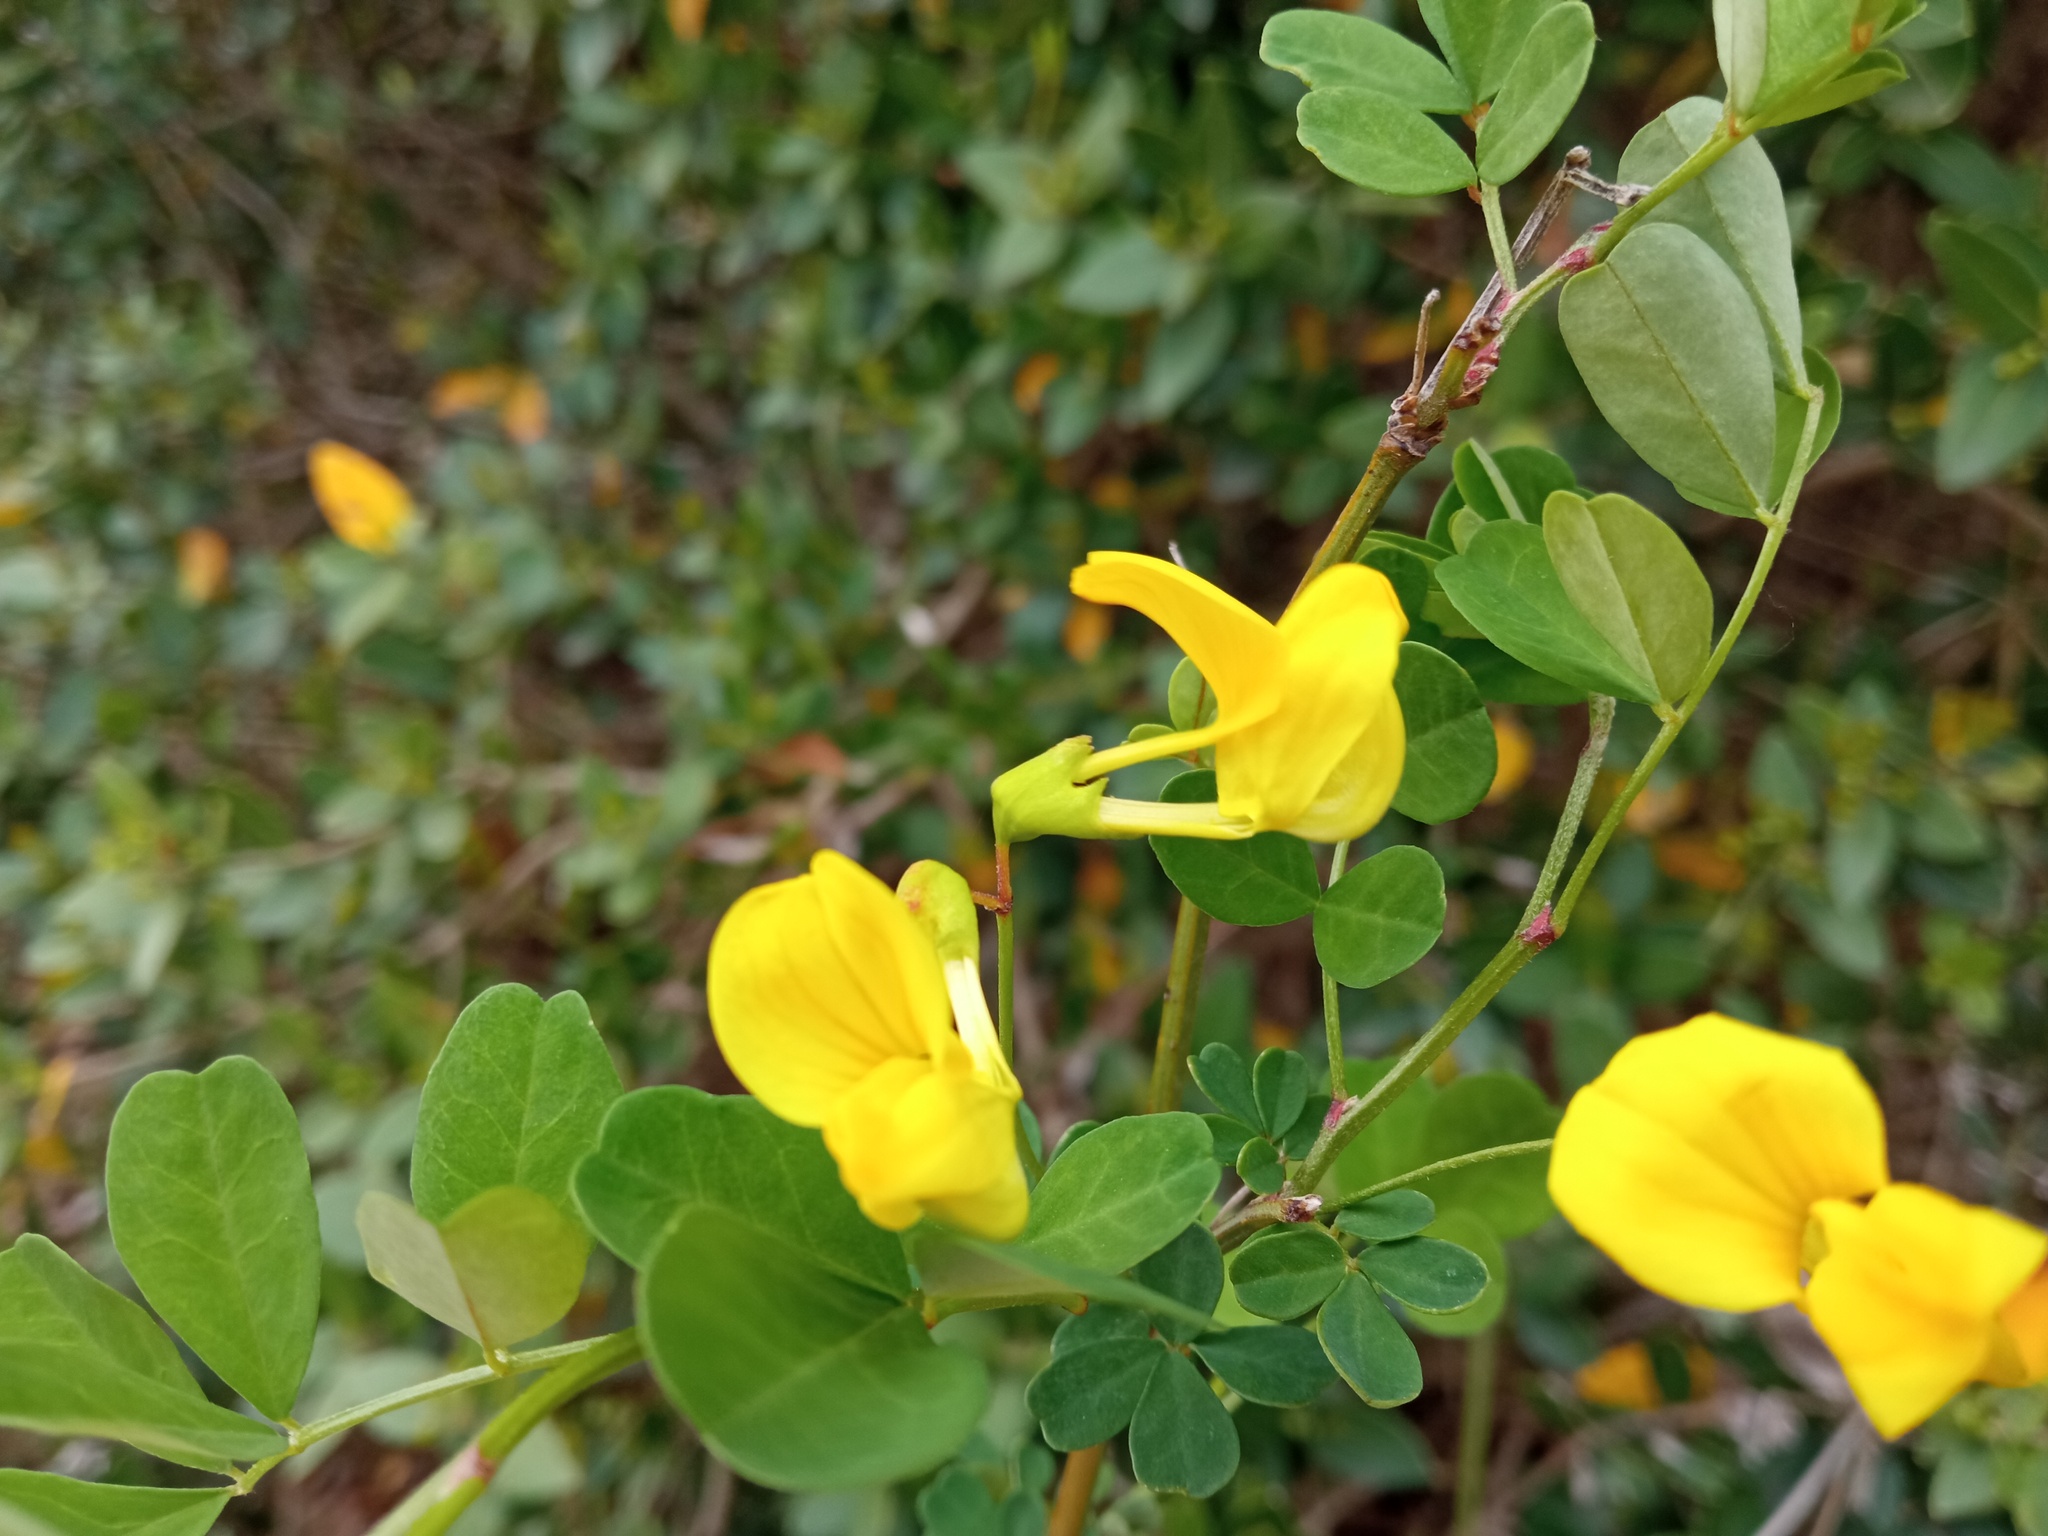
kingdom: Plantae
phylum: Tracheophyta
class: Magnoliopsida
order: Fabales
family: Fabaceae
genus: Hippocrepis
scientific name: Hippocrepis emerus
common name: Scorpion senna
